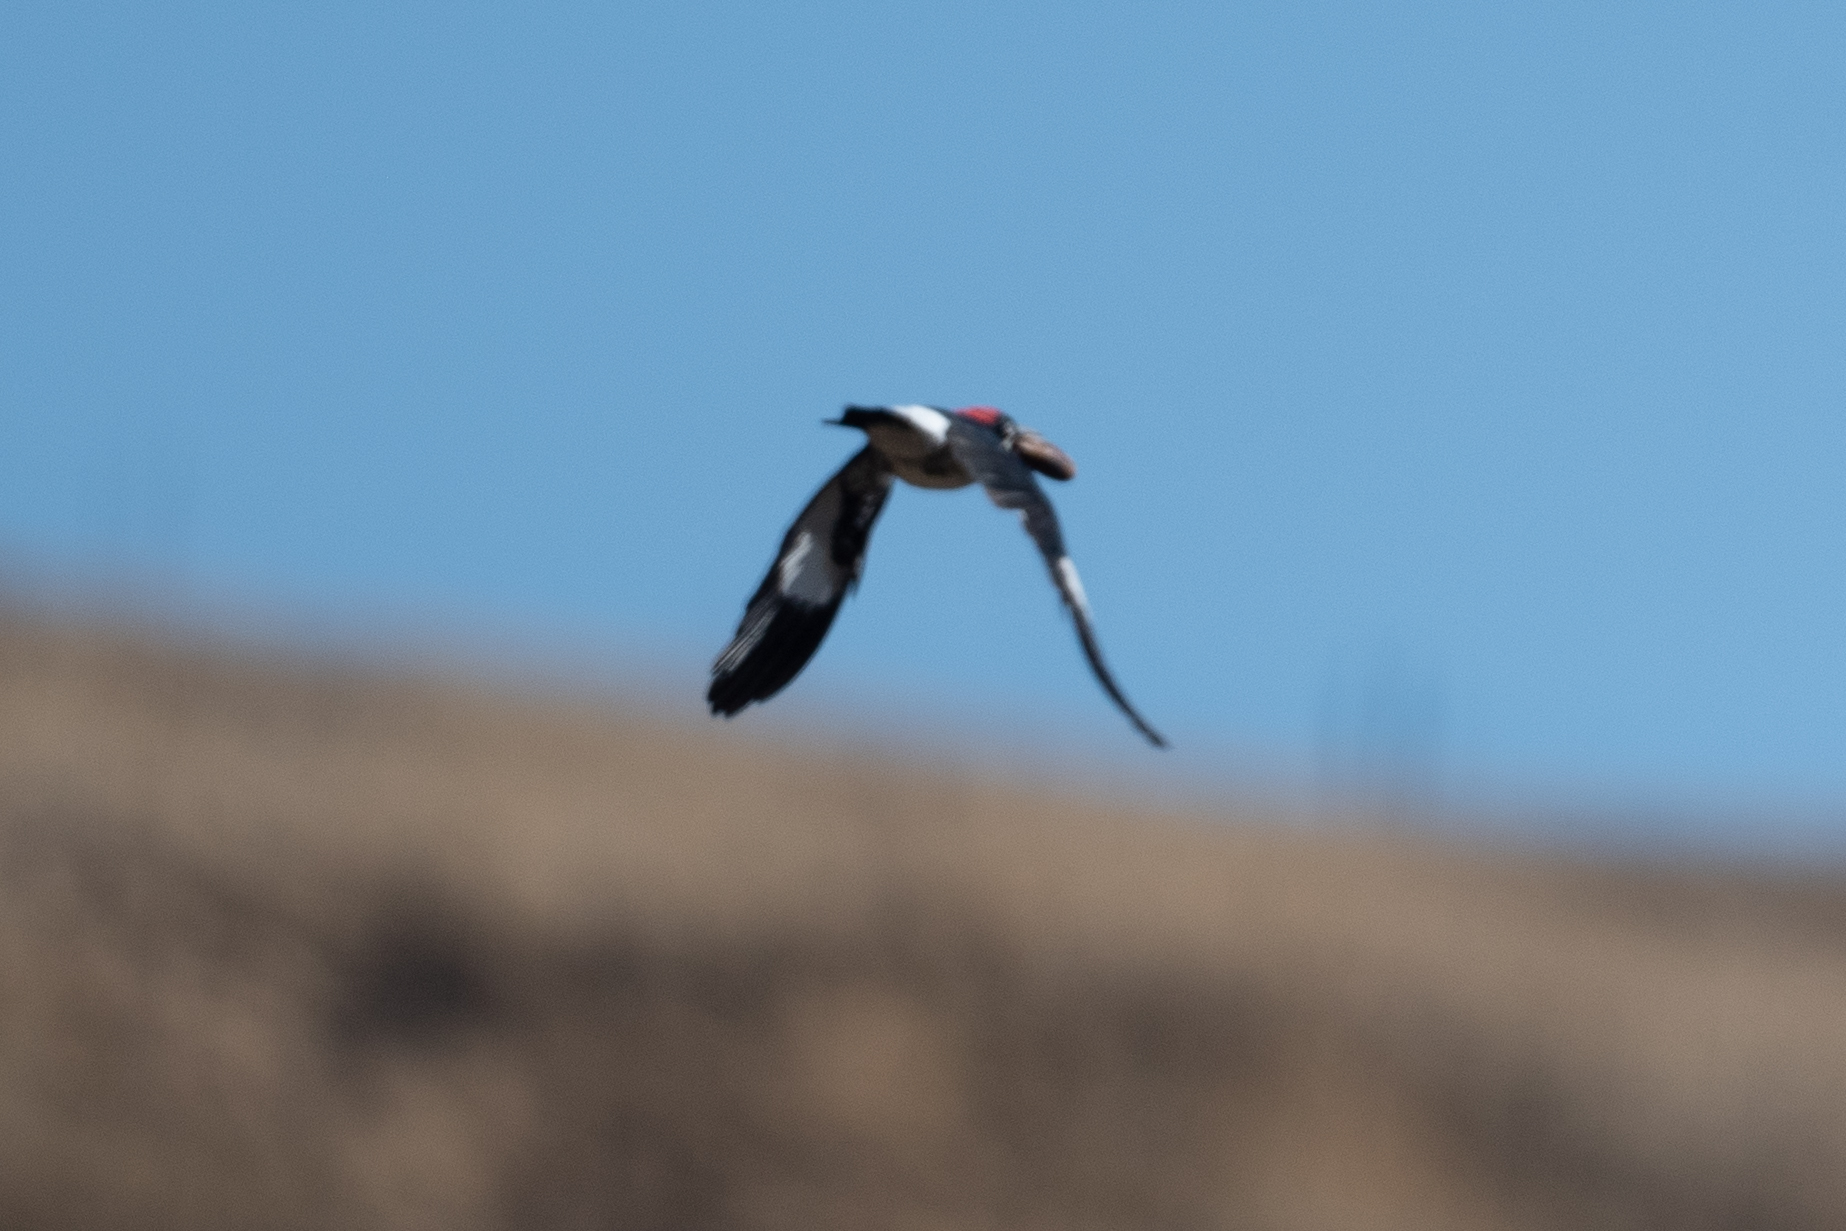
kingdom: Animalia
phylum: Chordata
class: Aves
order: Piciformes
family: Picidae
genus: Melanerpes
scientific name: Melanerpes formicivorus
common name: Acorn woodpecker
